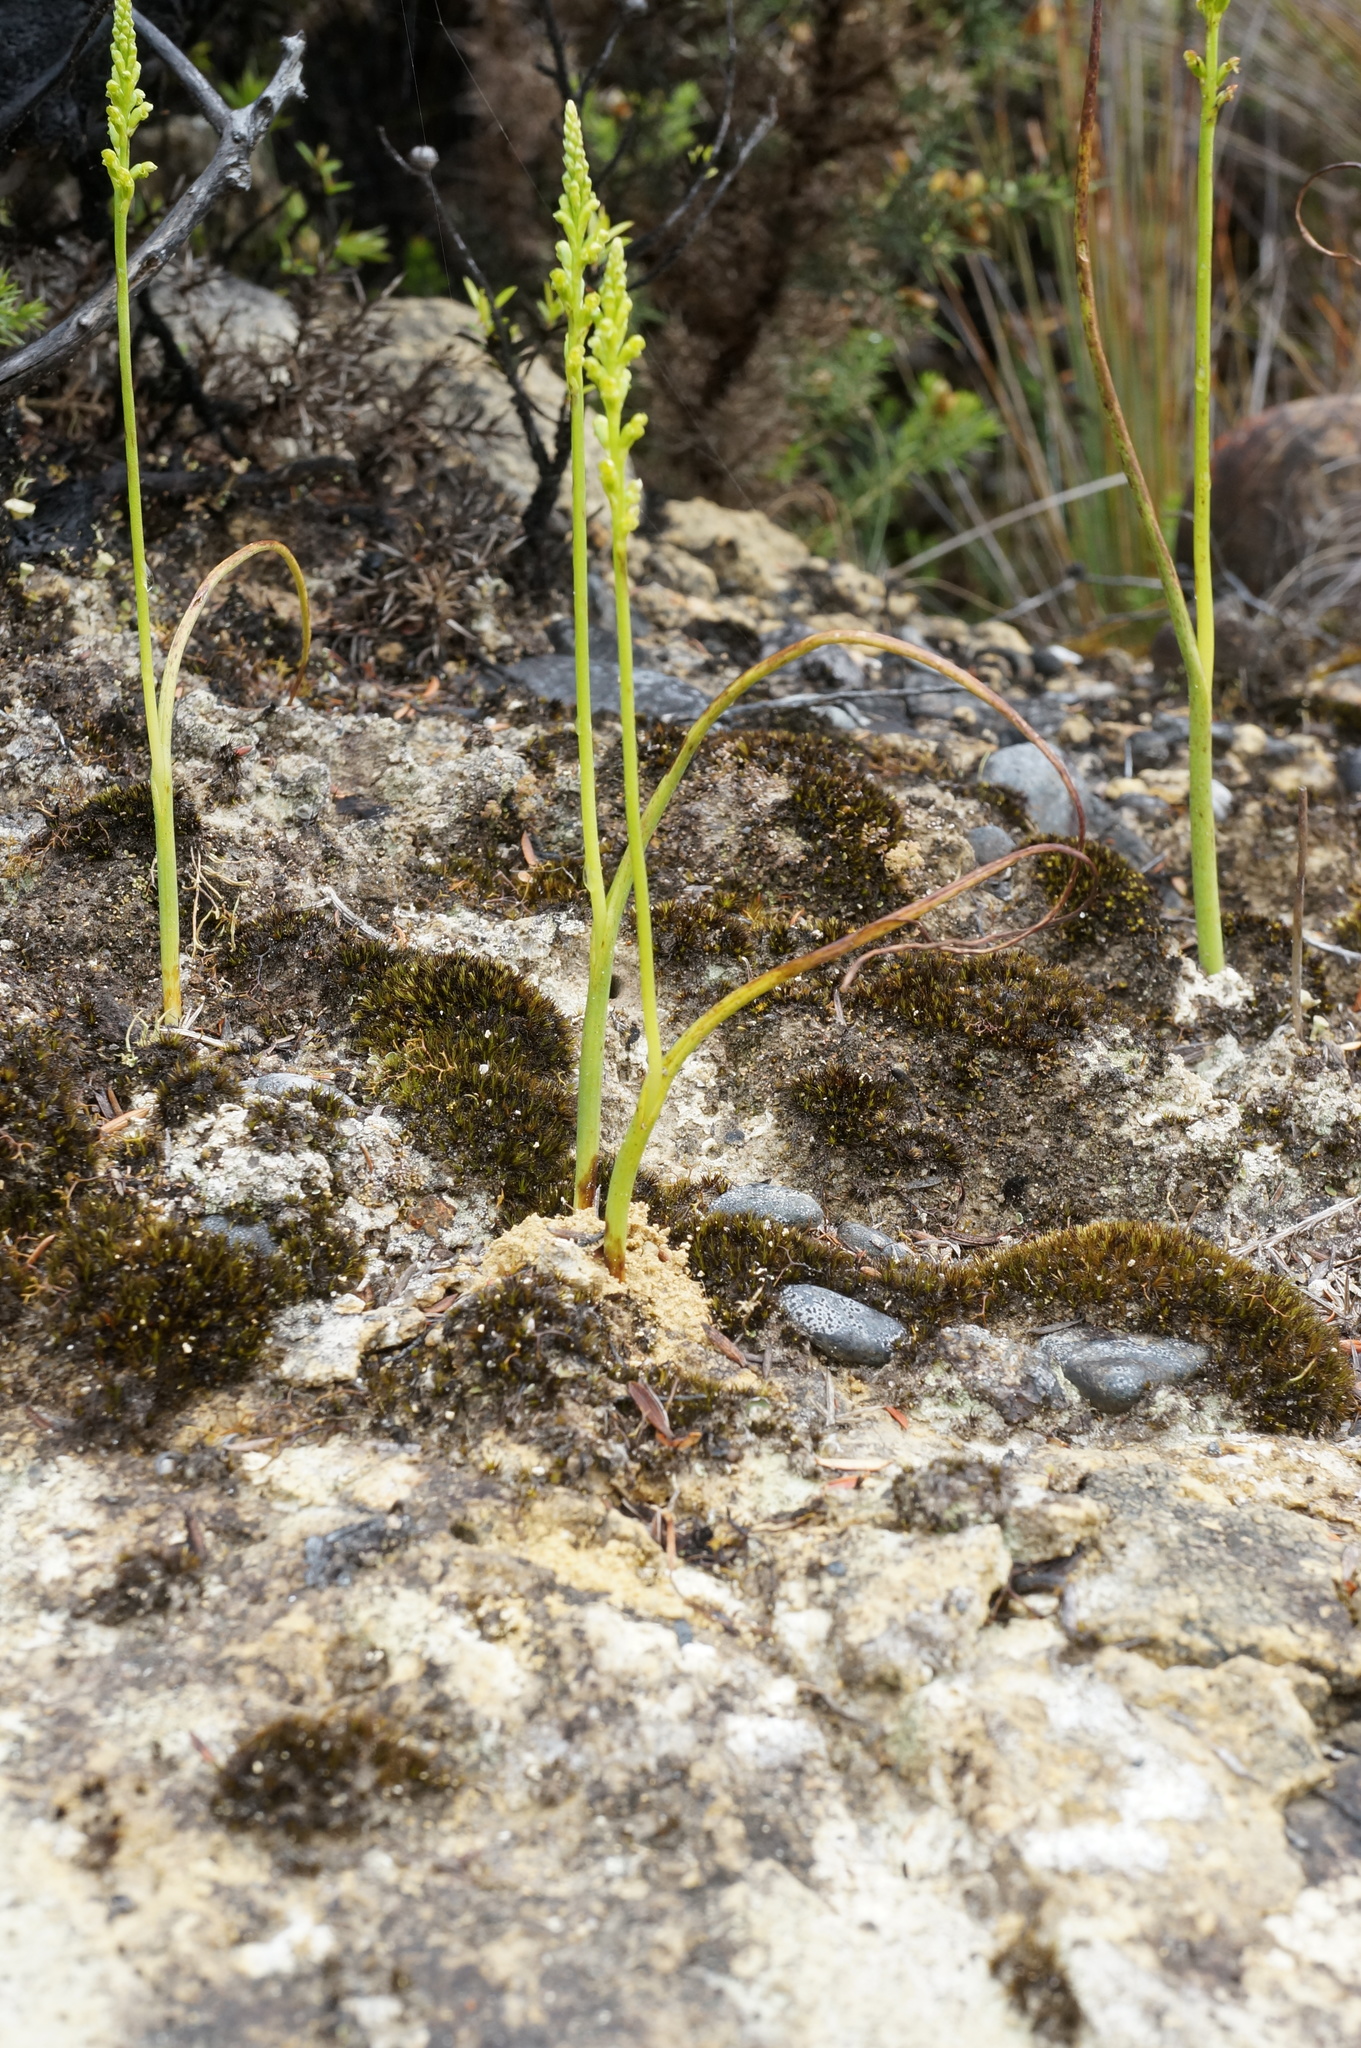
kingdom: Plantae
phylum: Tracheophyta
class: Liliopsida
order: Asparagales
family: Orchidaceae
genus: Microtis
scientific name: Microtis unifolia
